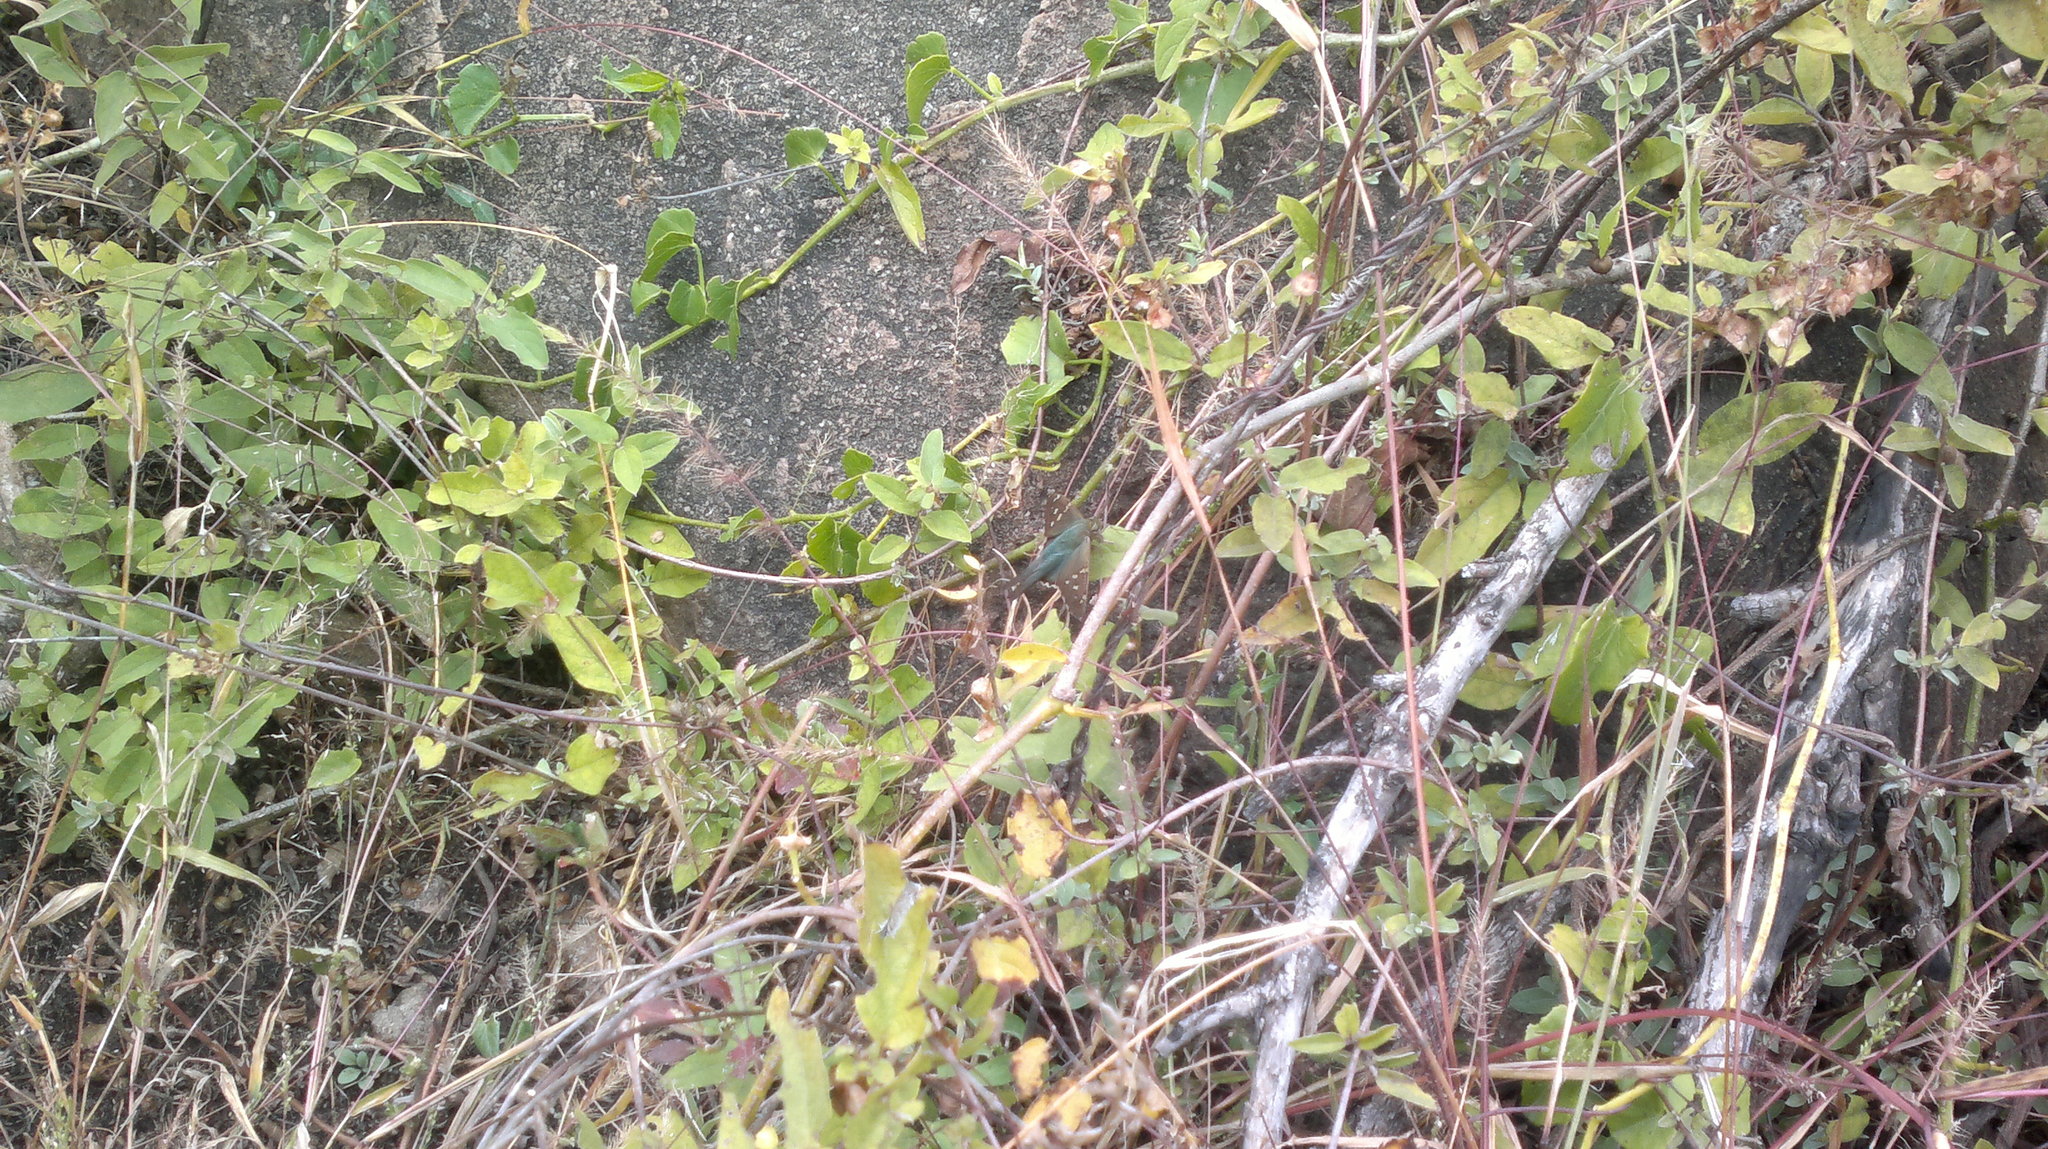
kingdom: Animalia
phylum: Arthropoda
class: Insecta
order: Lepidoptera
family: Hesperiidae
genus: Urbanus
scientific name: Urbanus proteus
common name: Long-tailed skipper
